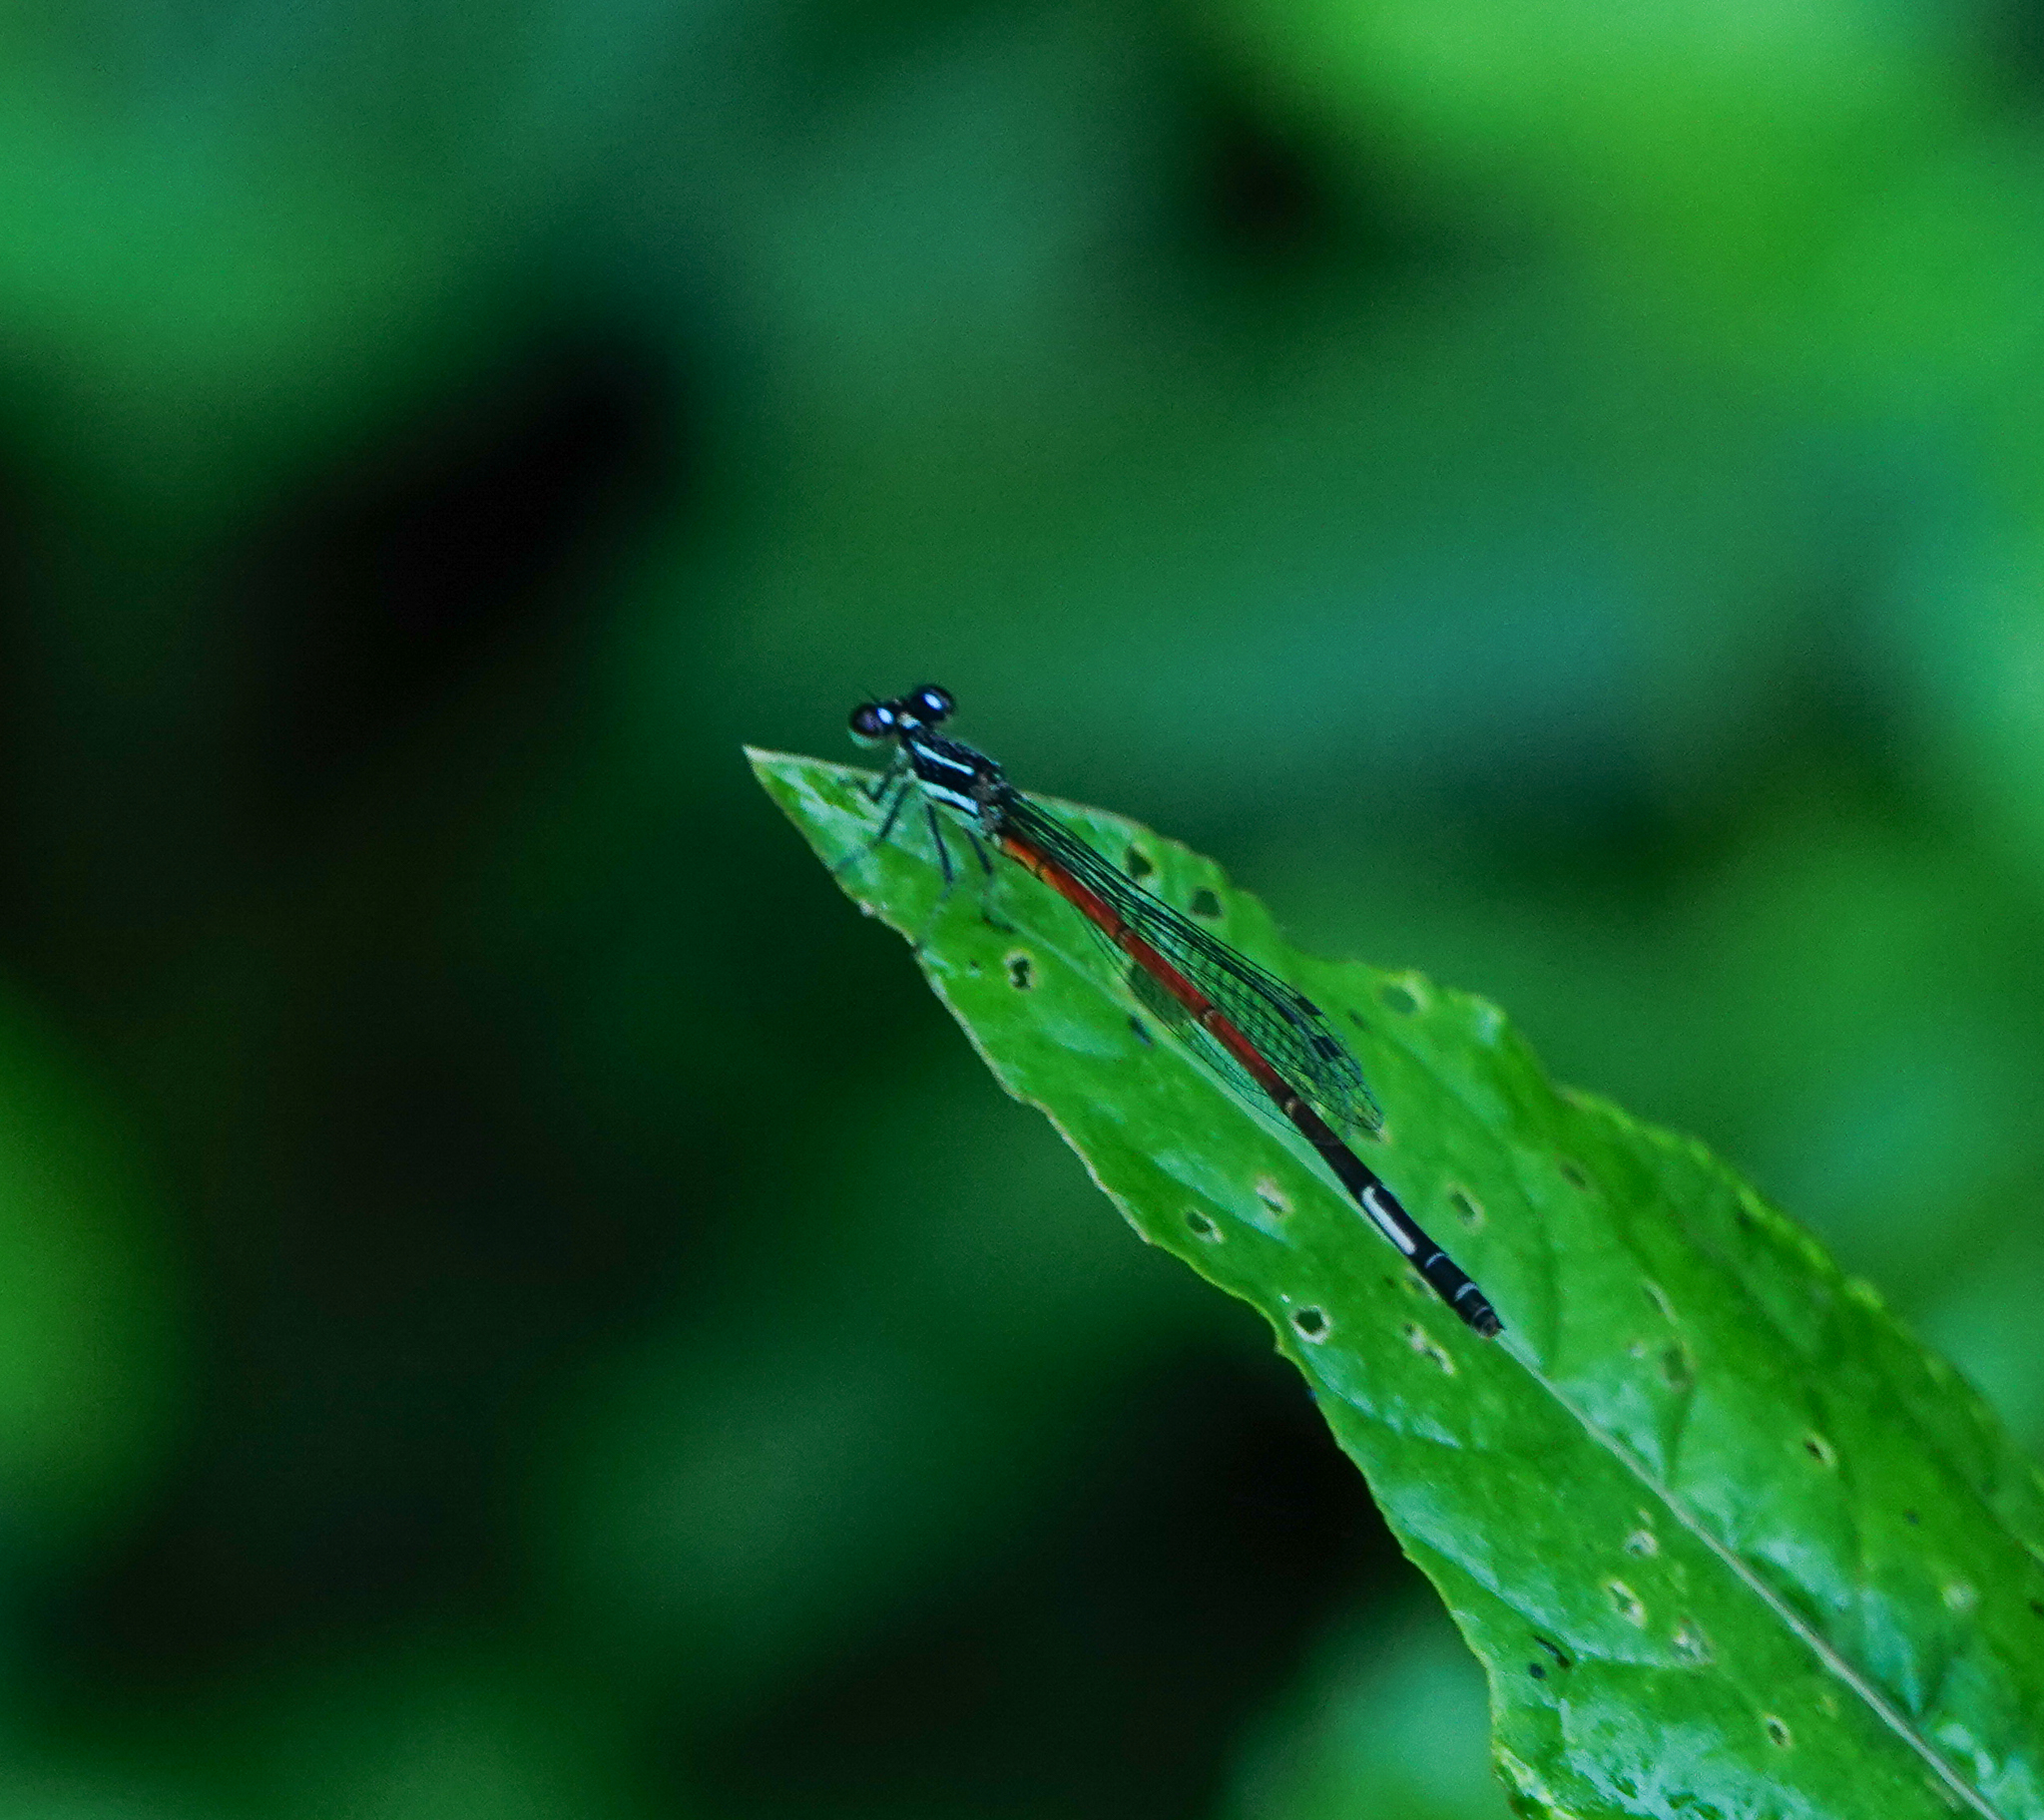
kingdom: Animalia
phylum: Arthropoda
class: Insecta
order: Odonata
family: Coenagrionidae
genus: Argiocnemis
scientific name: Argiocnemis rubescens
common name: Red-tipped shadefly
